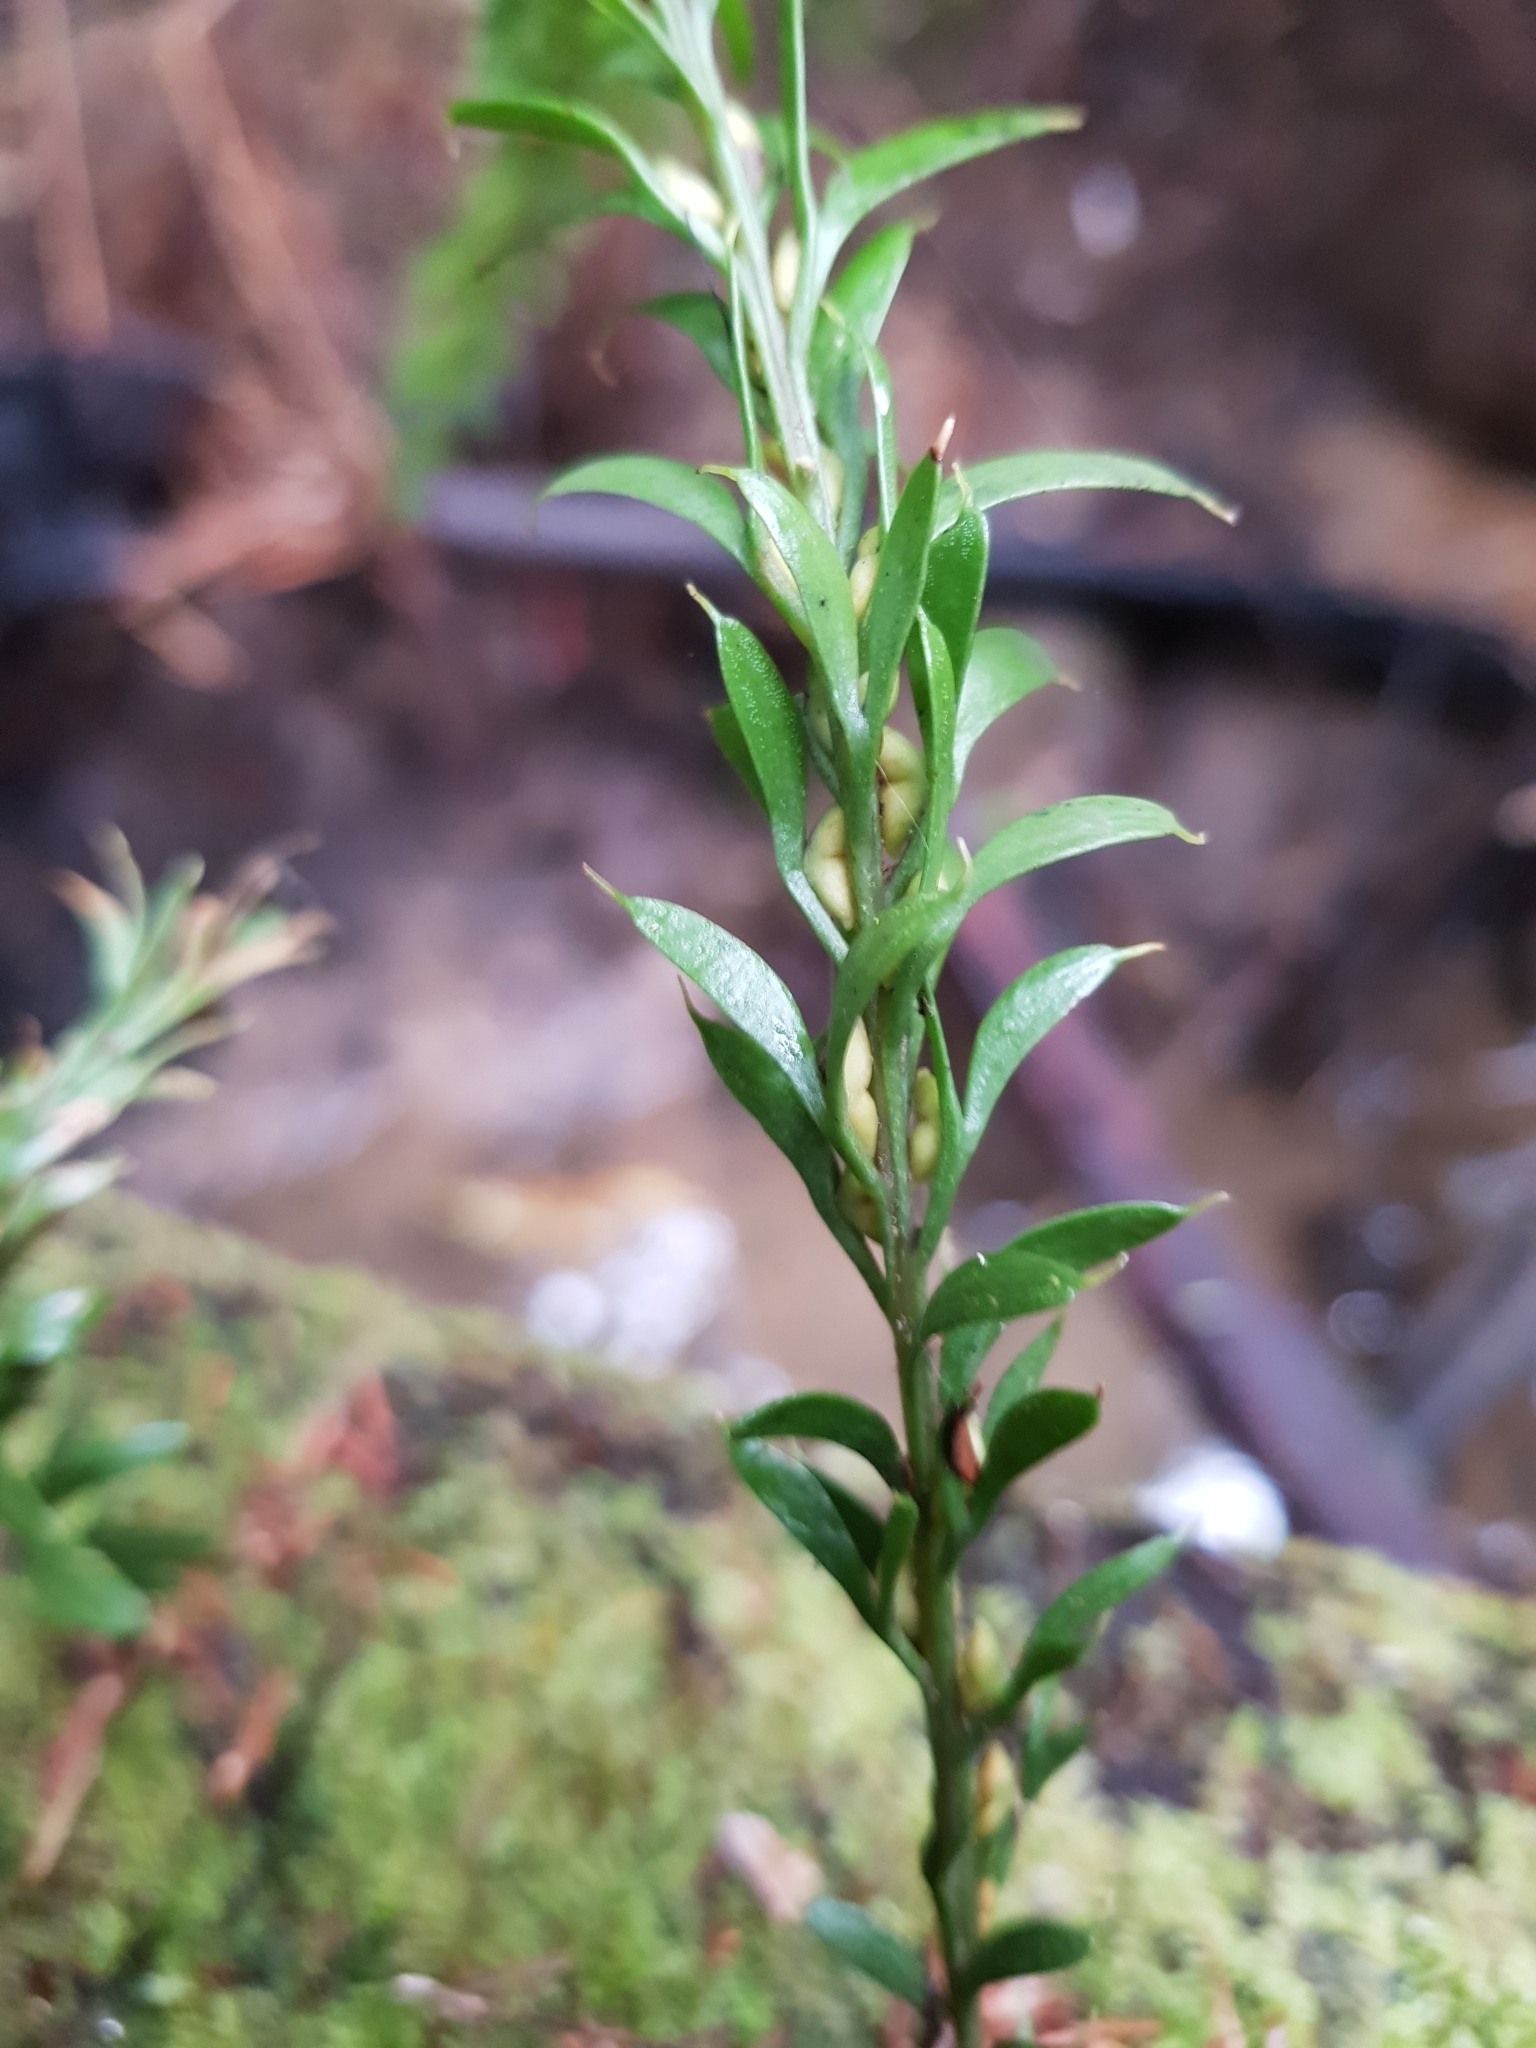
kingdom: Plantae
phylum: Tracheophyta
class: Polypodiopsida
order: Psilotales
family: Psilotaceae
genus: Tmesipteris
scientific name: Tmesipteris tannensis
